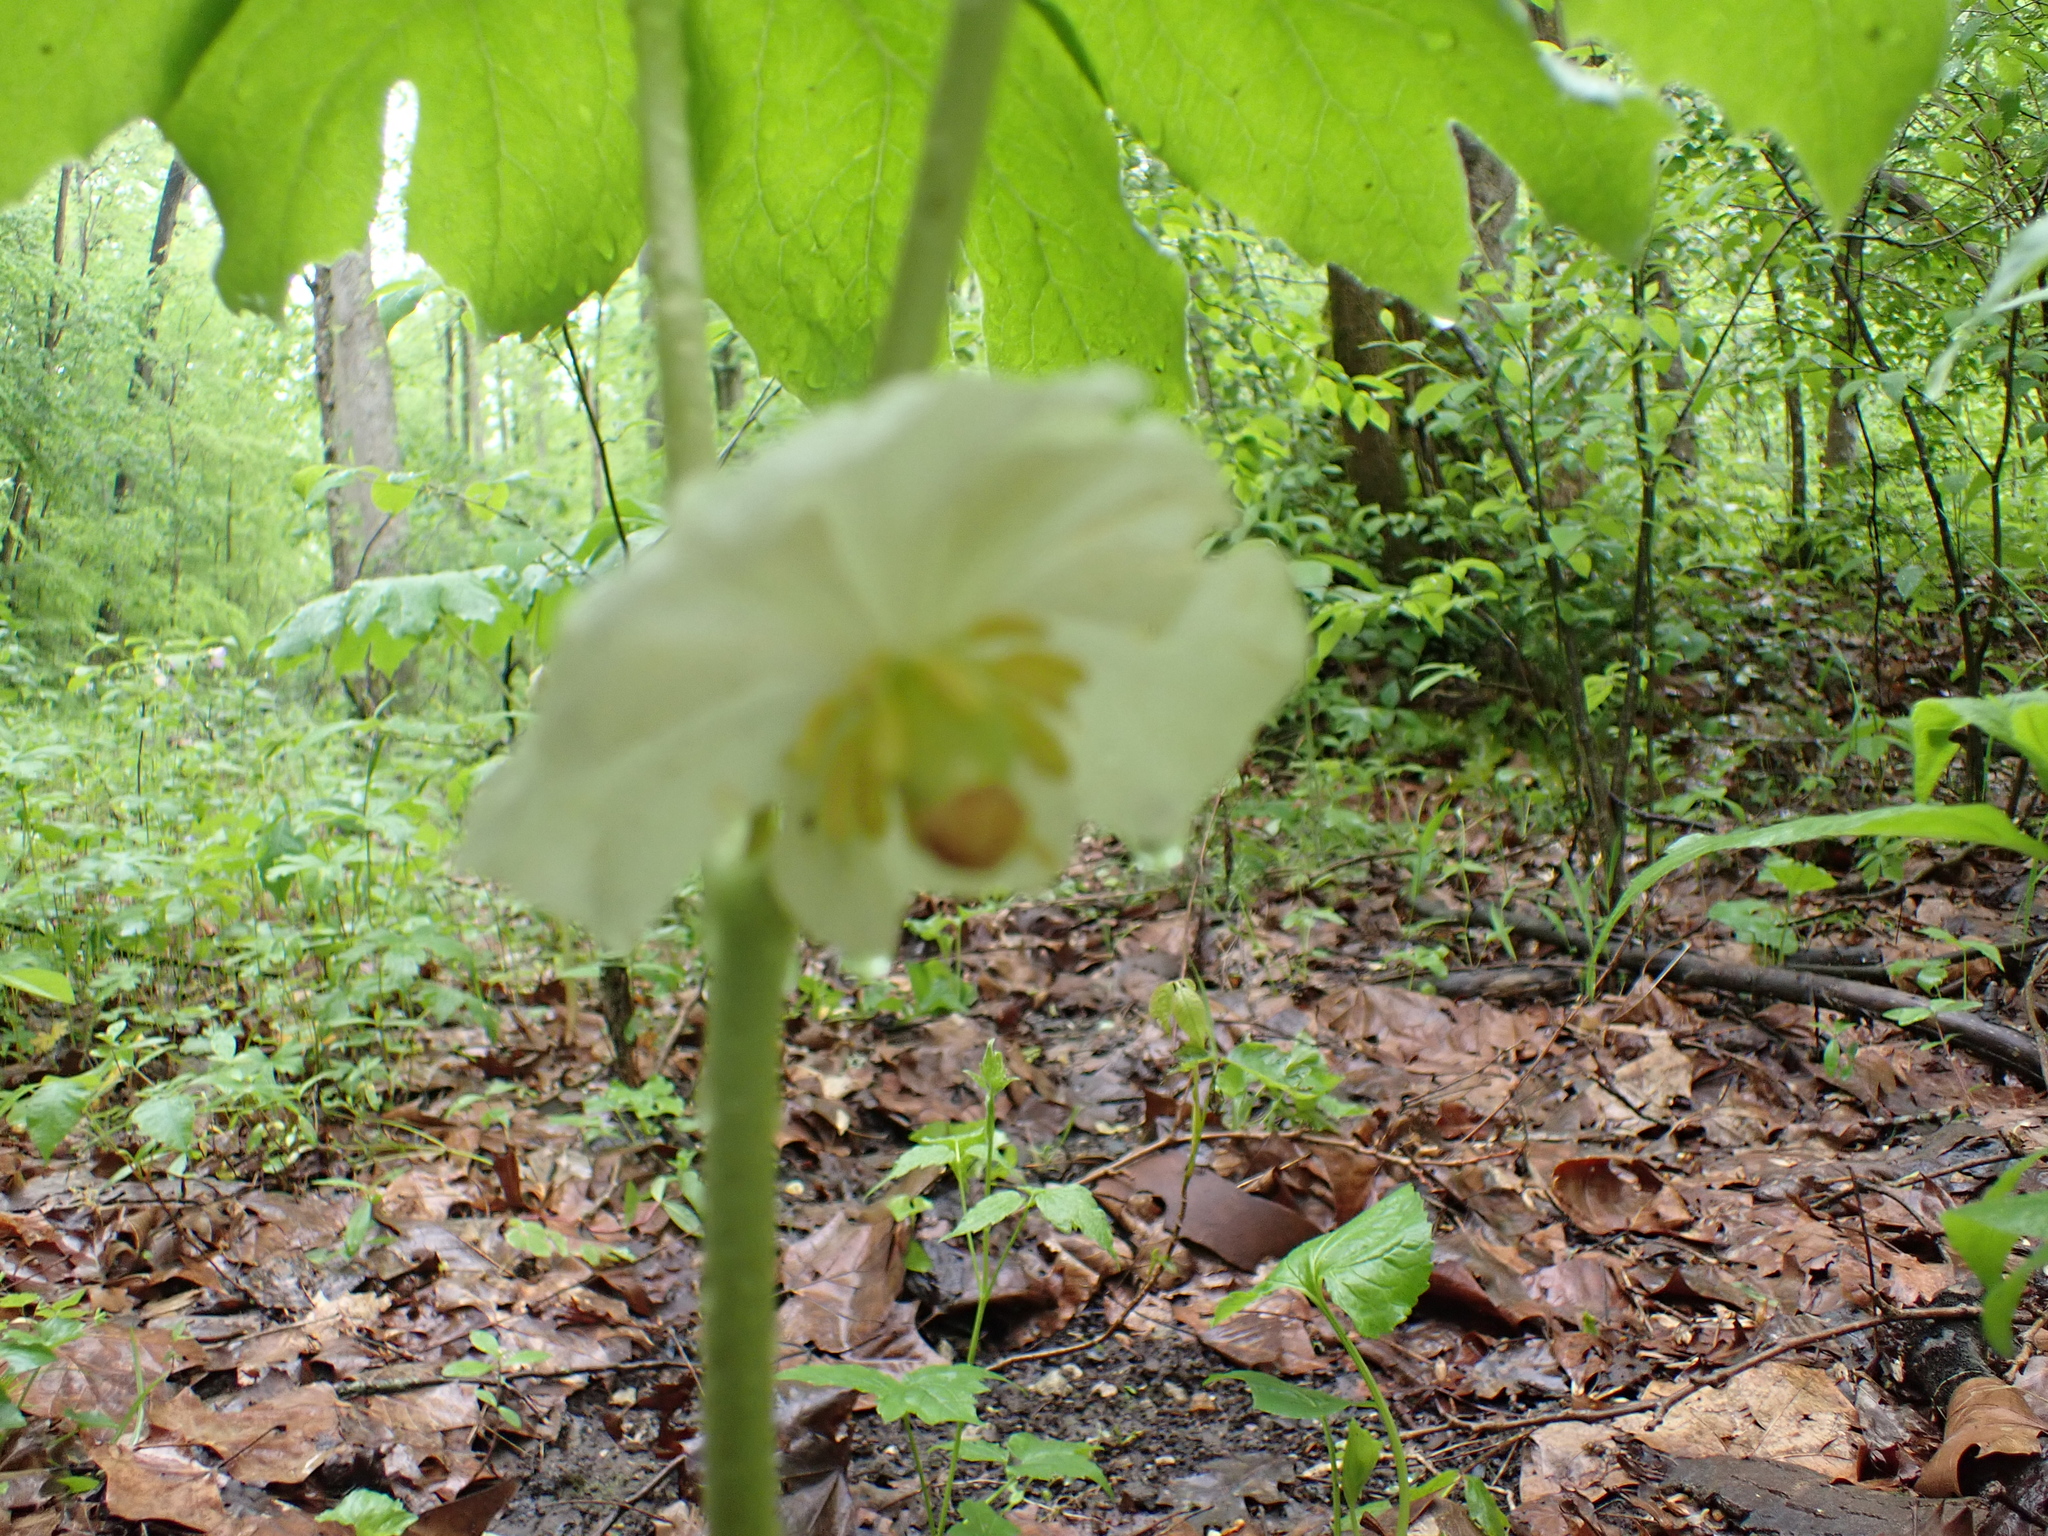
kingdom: Plantae
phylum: Tracheophyta
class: Magnoliopsida
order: Ranunculales
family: Berberidaceae
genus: Podophyllum
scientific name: Podophyllum peltatum
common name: Wild mandrake
